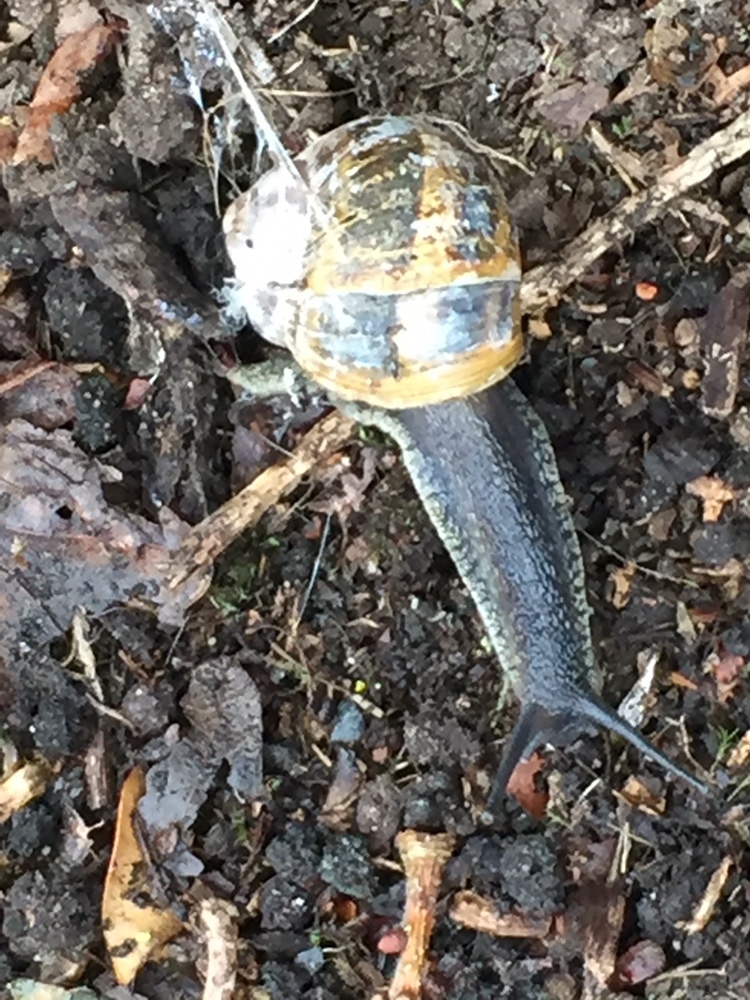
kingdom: Animalia
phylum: Mollusca
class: Gastropoda
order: Stylommatophora
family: Helicidae
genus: Cornu
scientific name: Cornu aspersum
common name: Brown garden snail
